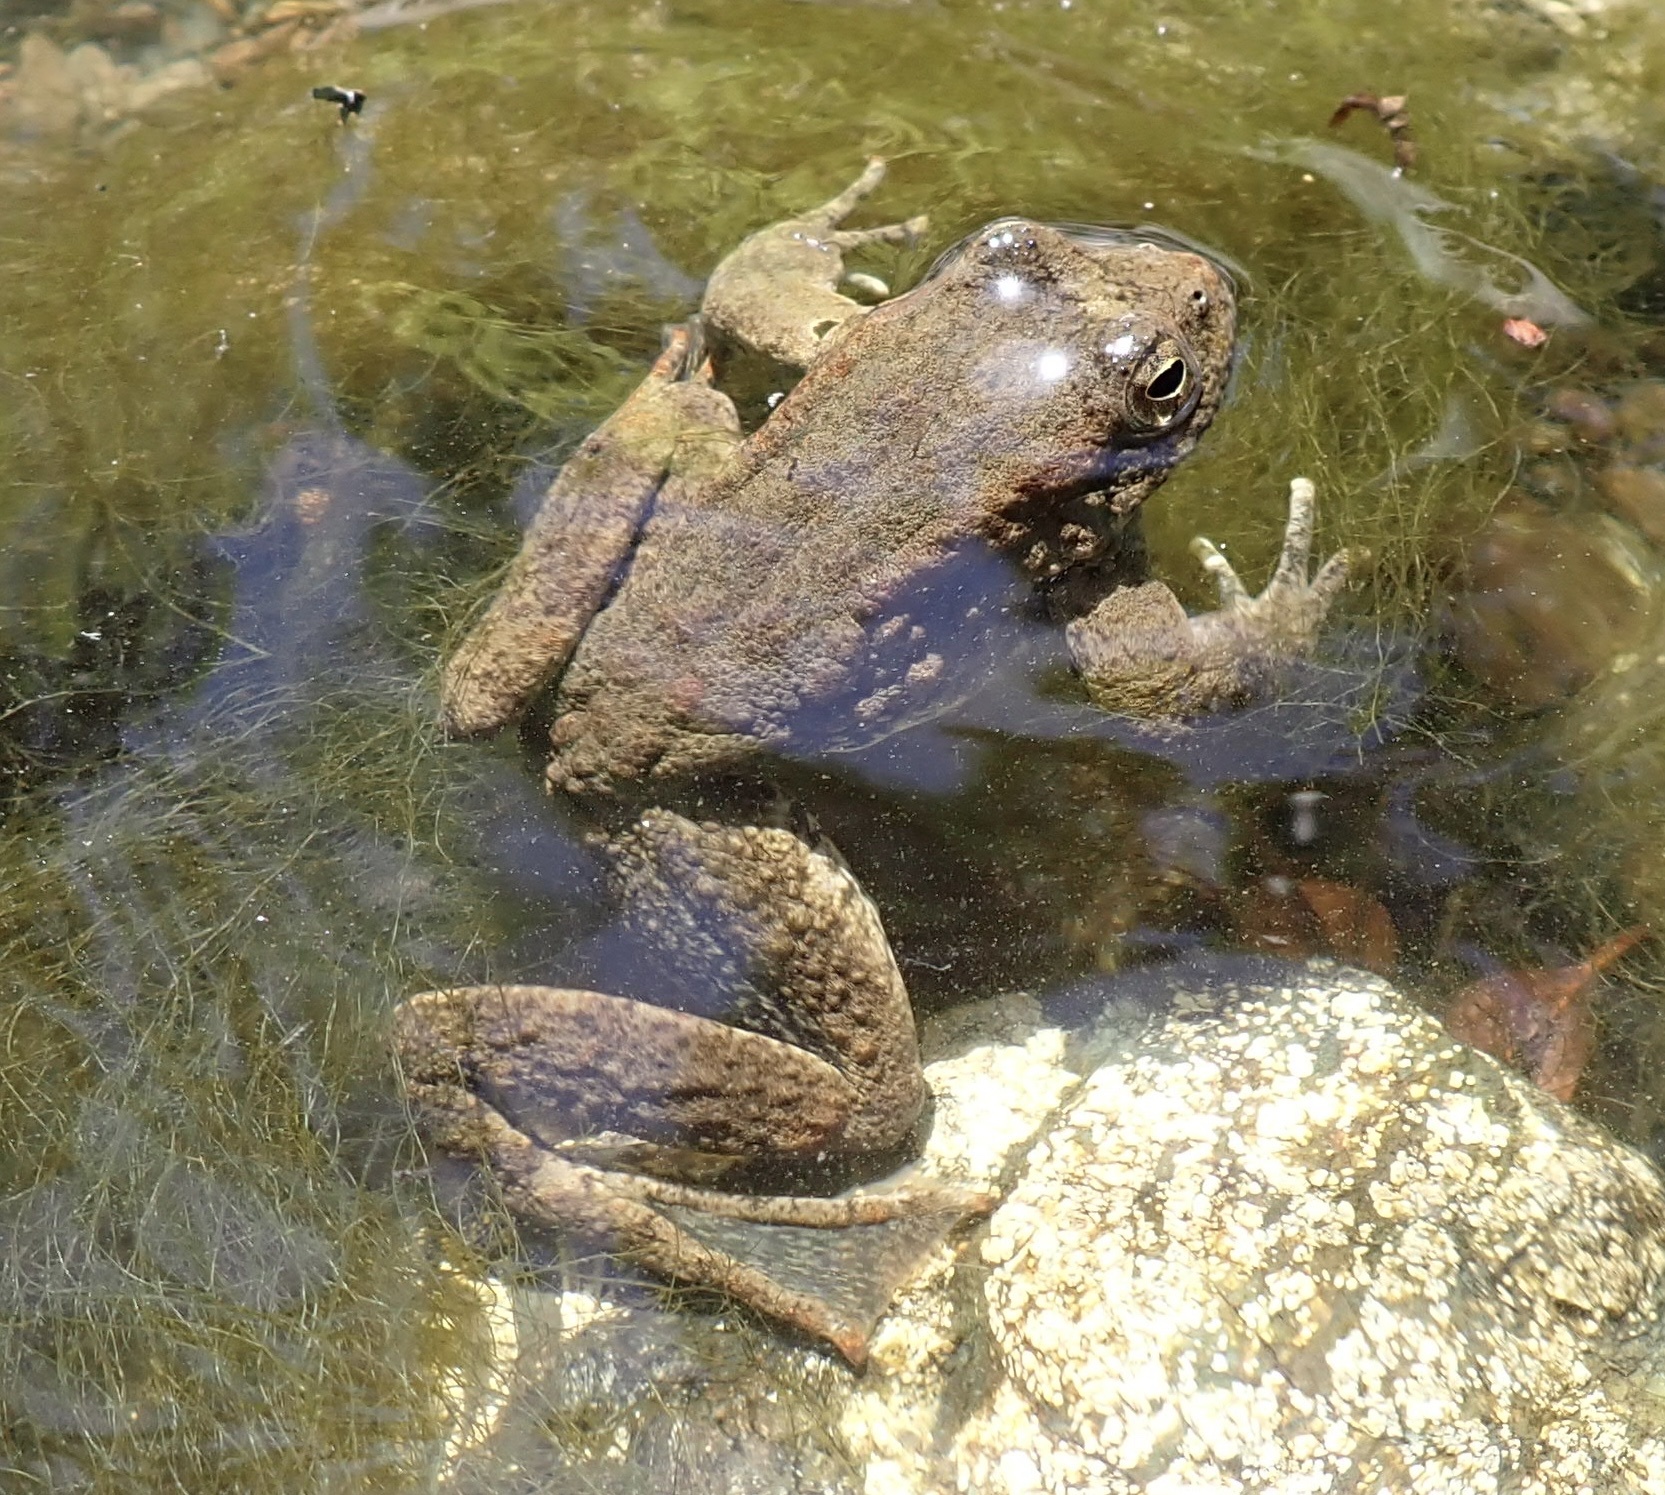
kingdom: Animalia
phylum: Chordata
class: Amphibia
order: Anura
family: Ranidae
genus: Rana
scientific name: Rana boylii
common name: Foothill yellow-legged frog
